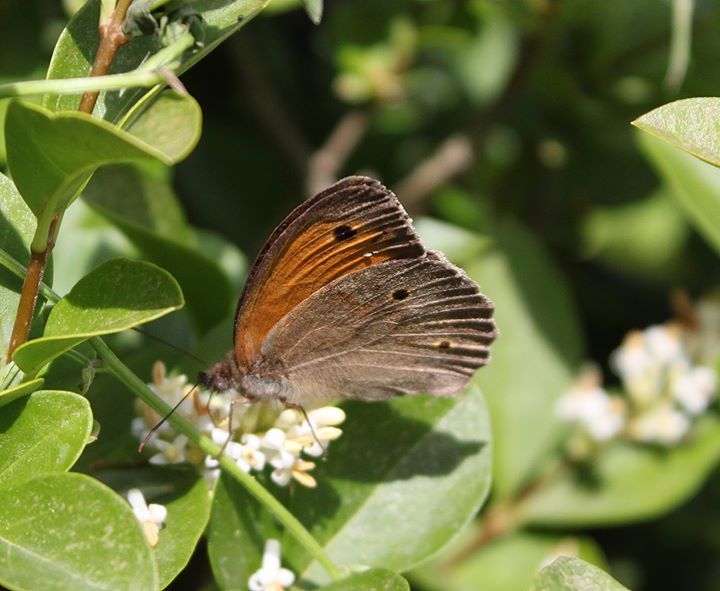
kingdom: Animalia
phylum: Arthropoda
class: Insecta
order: Lepidoptera
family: Nymphalidae
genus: Maniola
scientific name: Maniola jurtina
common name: Meadow brown
